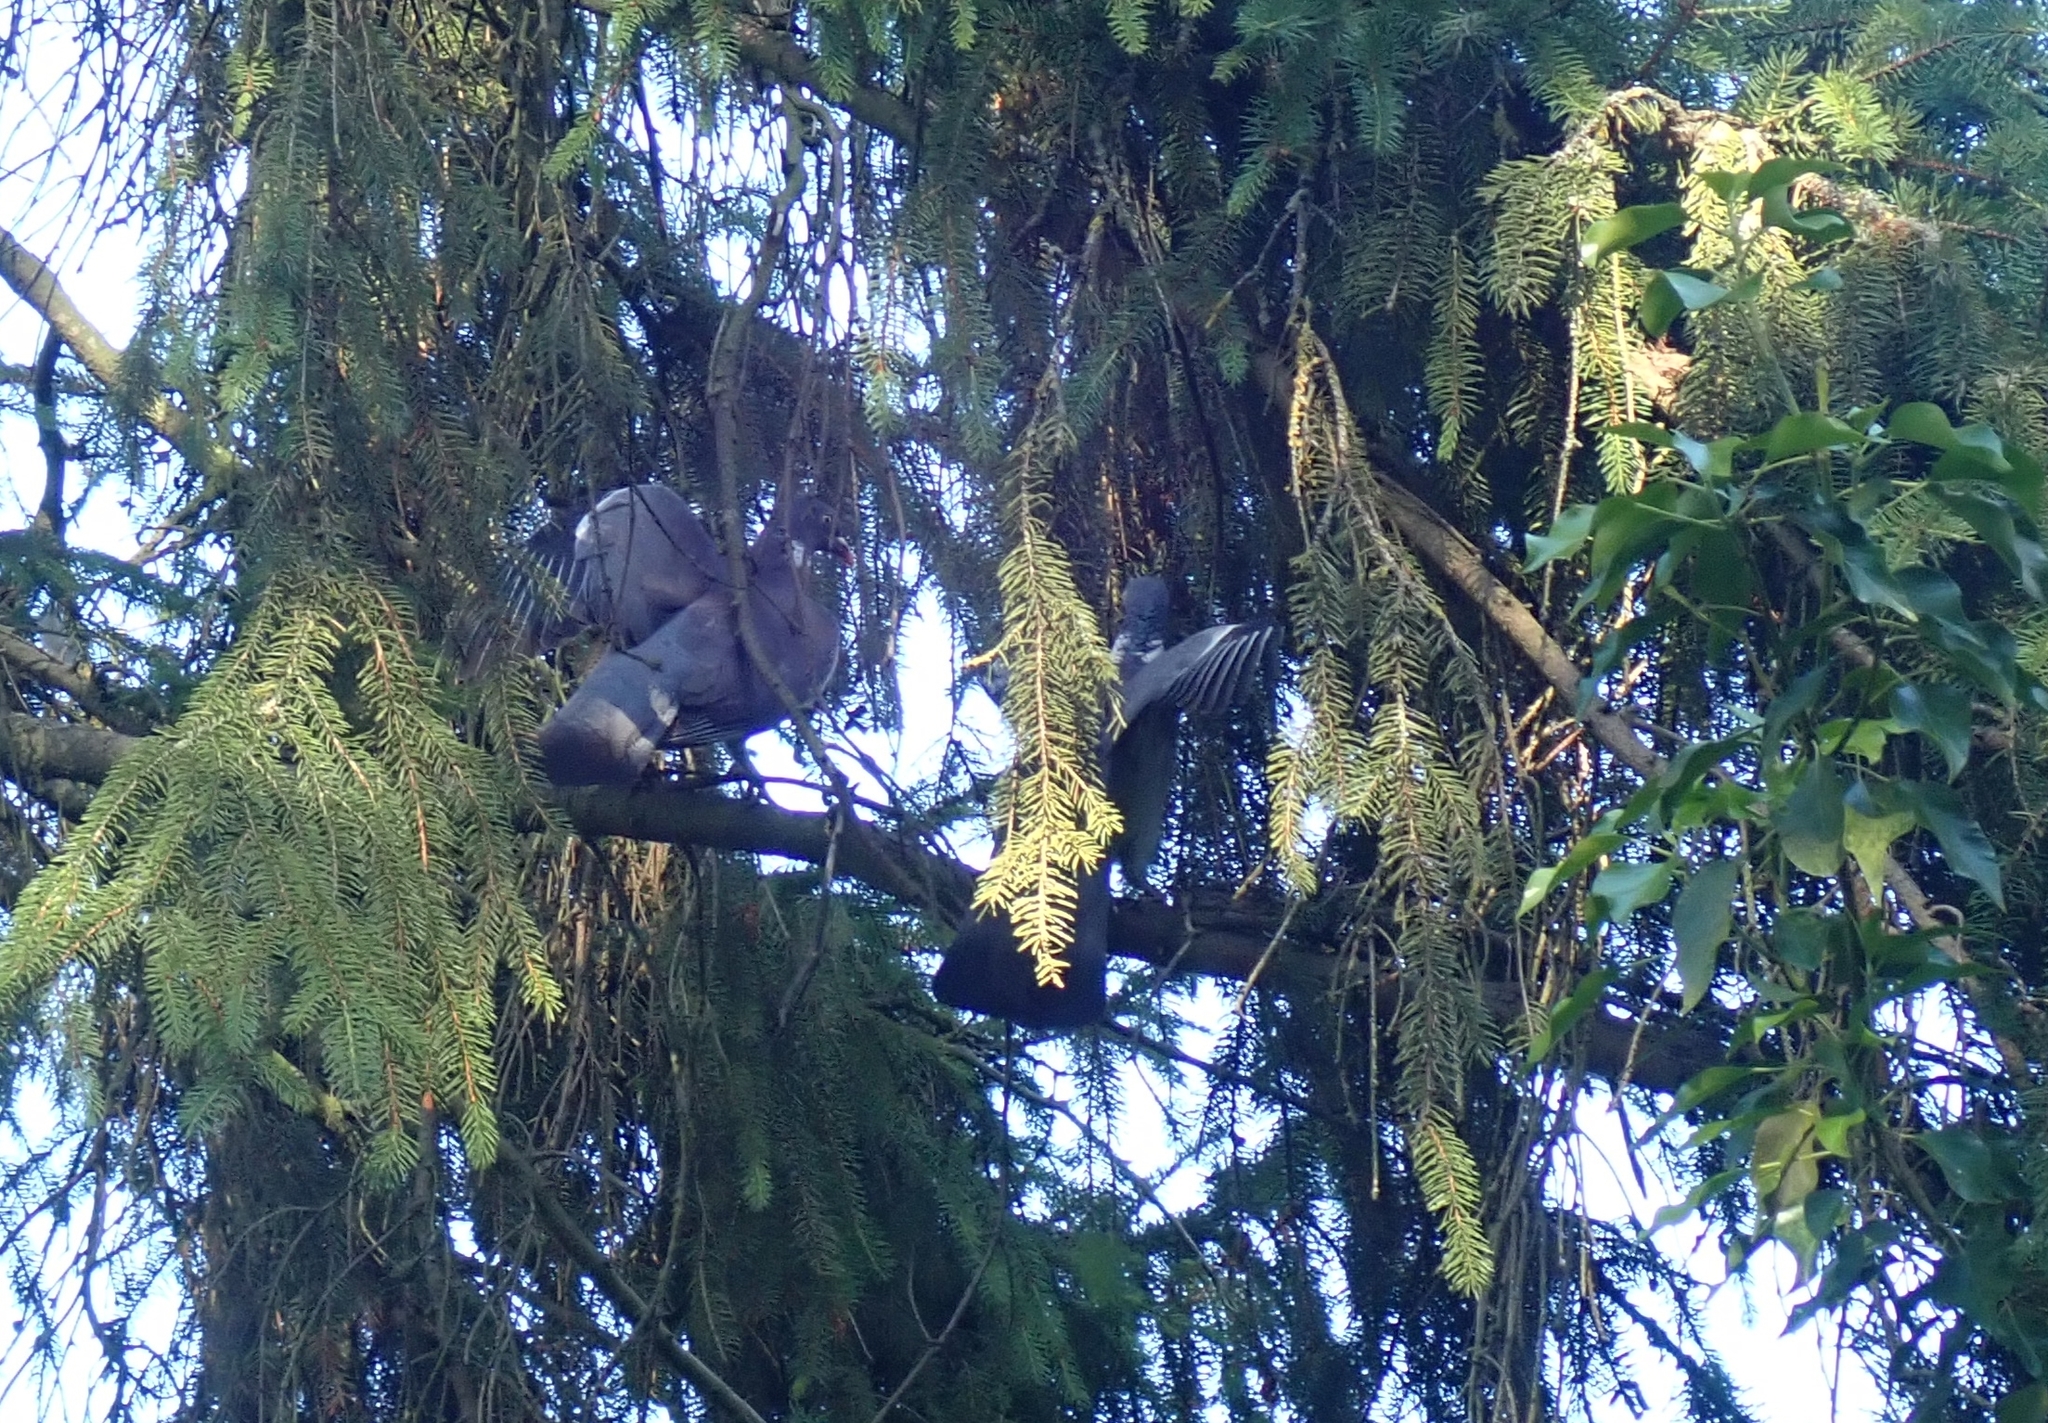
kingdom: Animalia
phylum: Chordata
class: Aves
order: Columbiformes
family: Columbidae
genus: Columba
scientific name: Columba palumbus
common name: Common wood pigeon
